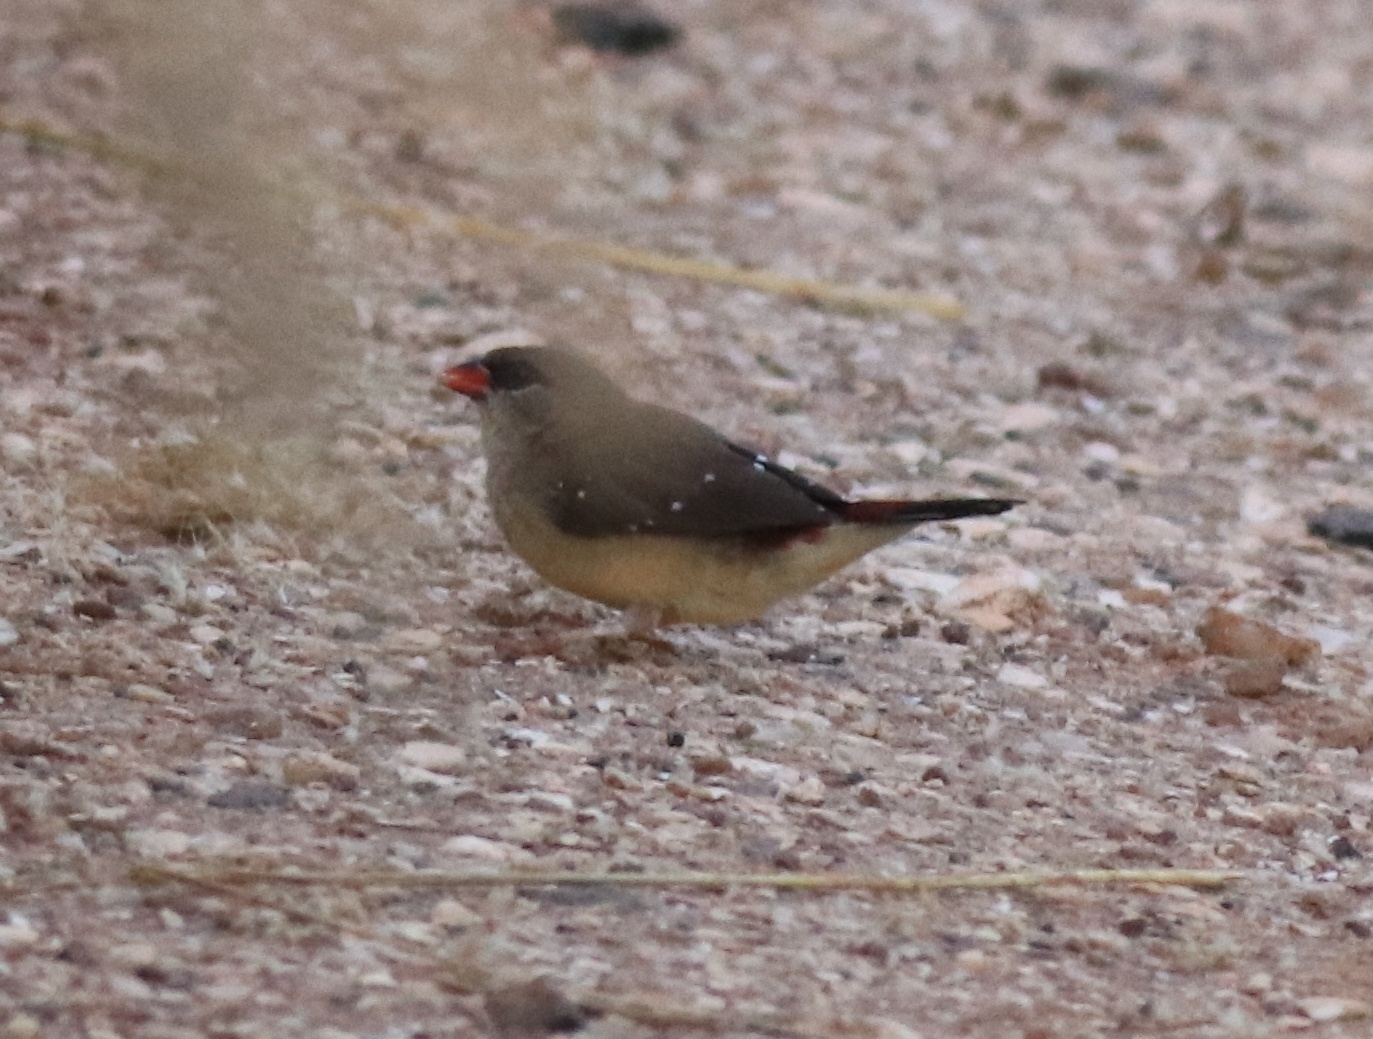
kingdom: Animalia
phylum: Chordata
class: Aves
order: Passeriformes
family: Estrildidae
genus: Amandava
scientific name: Amandava amandava
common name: Red avadavat
